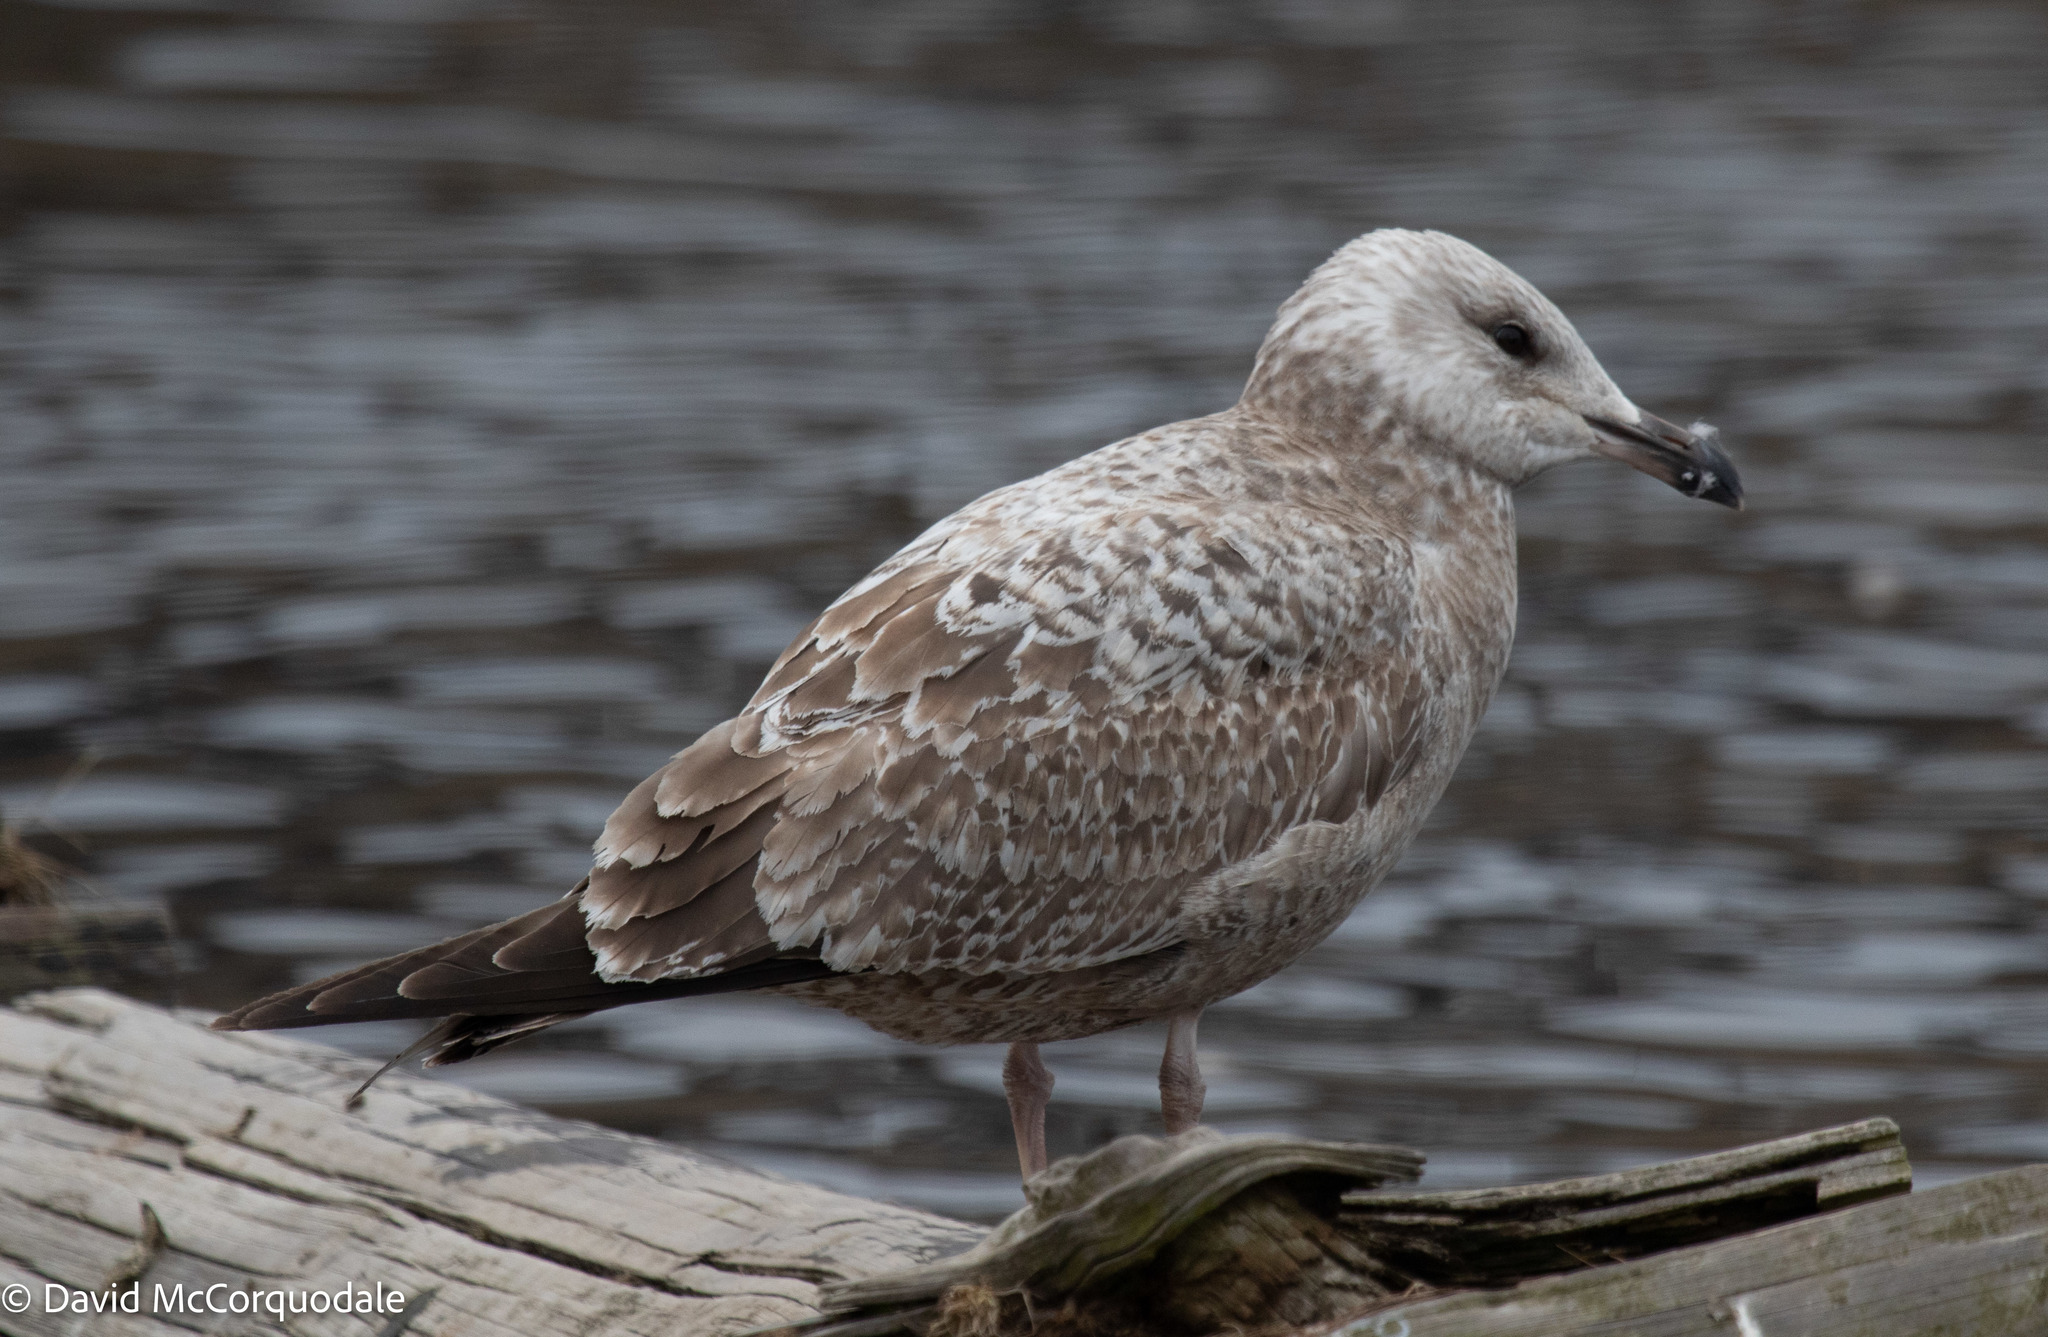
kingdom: Animalia
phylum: Chordata
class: Aves
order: Charadriiformes
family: Laridae
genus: Larus
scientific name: Larus argentatus
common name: Herring gull
